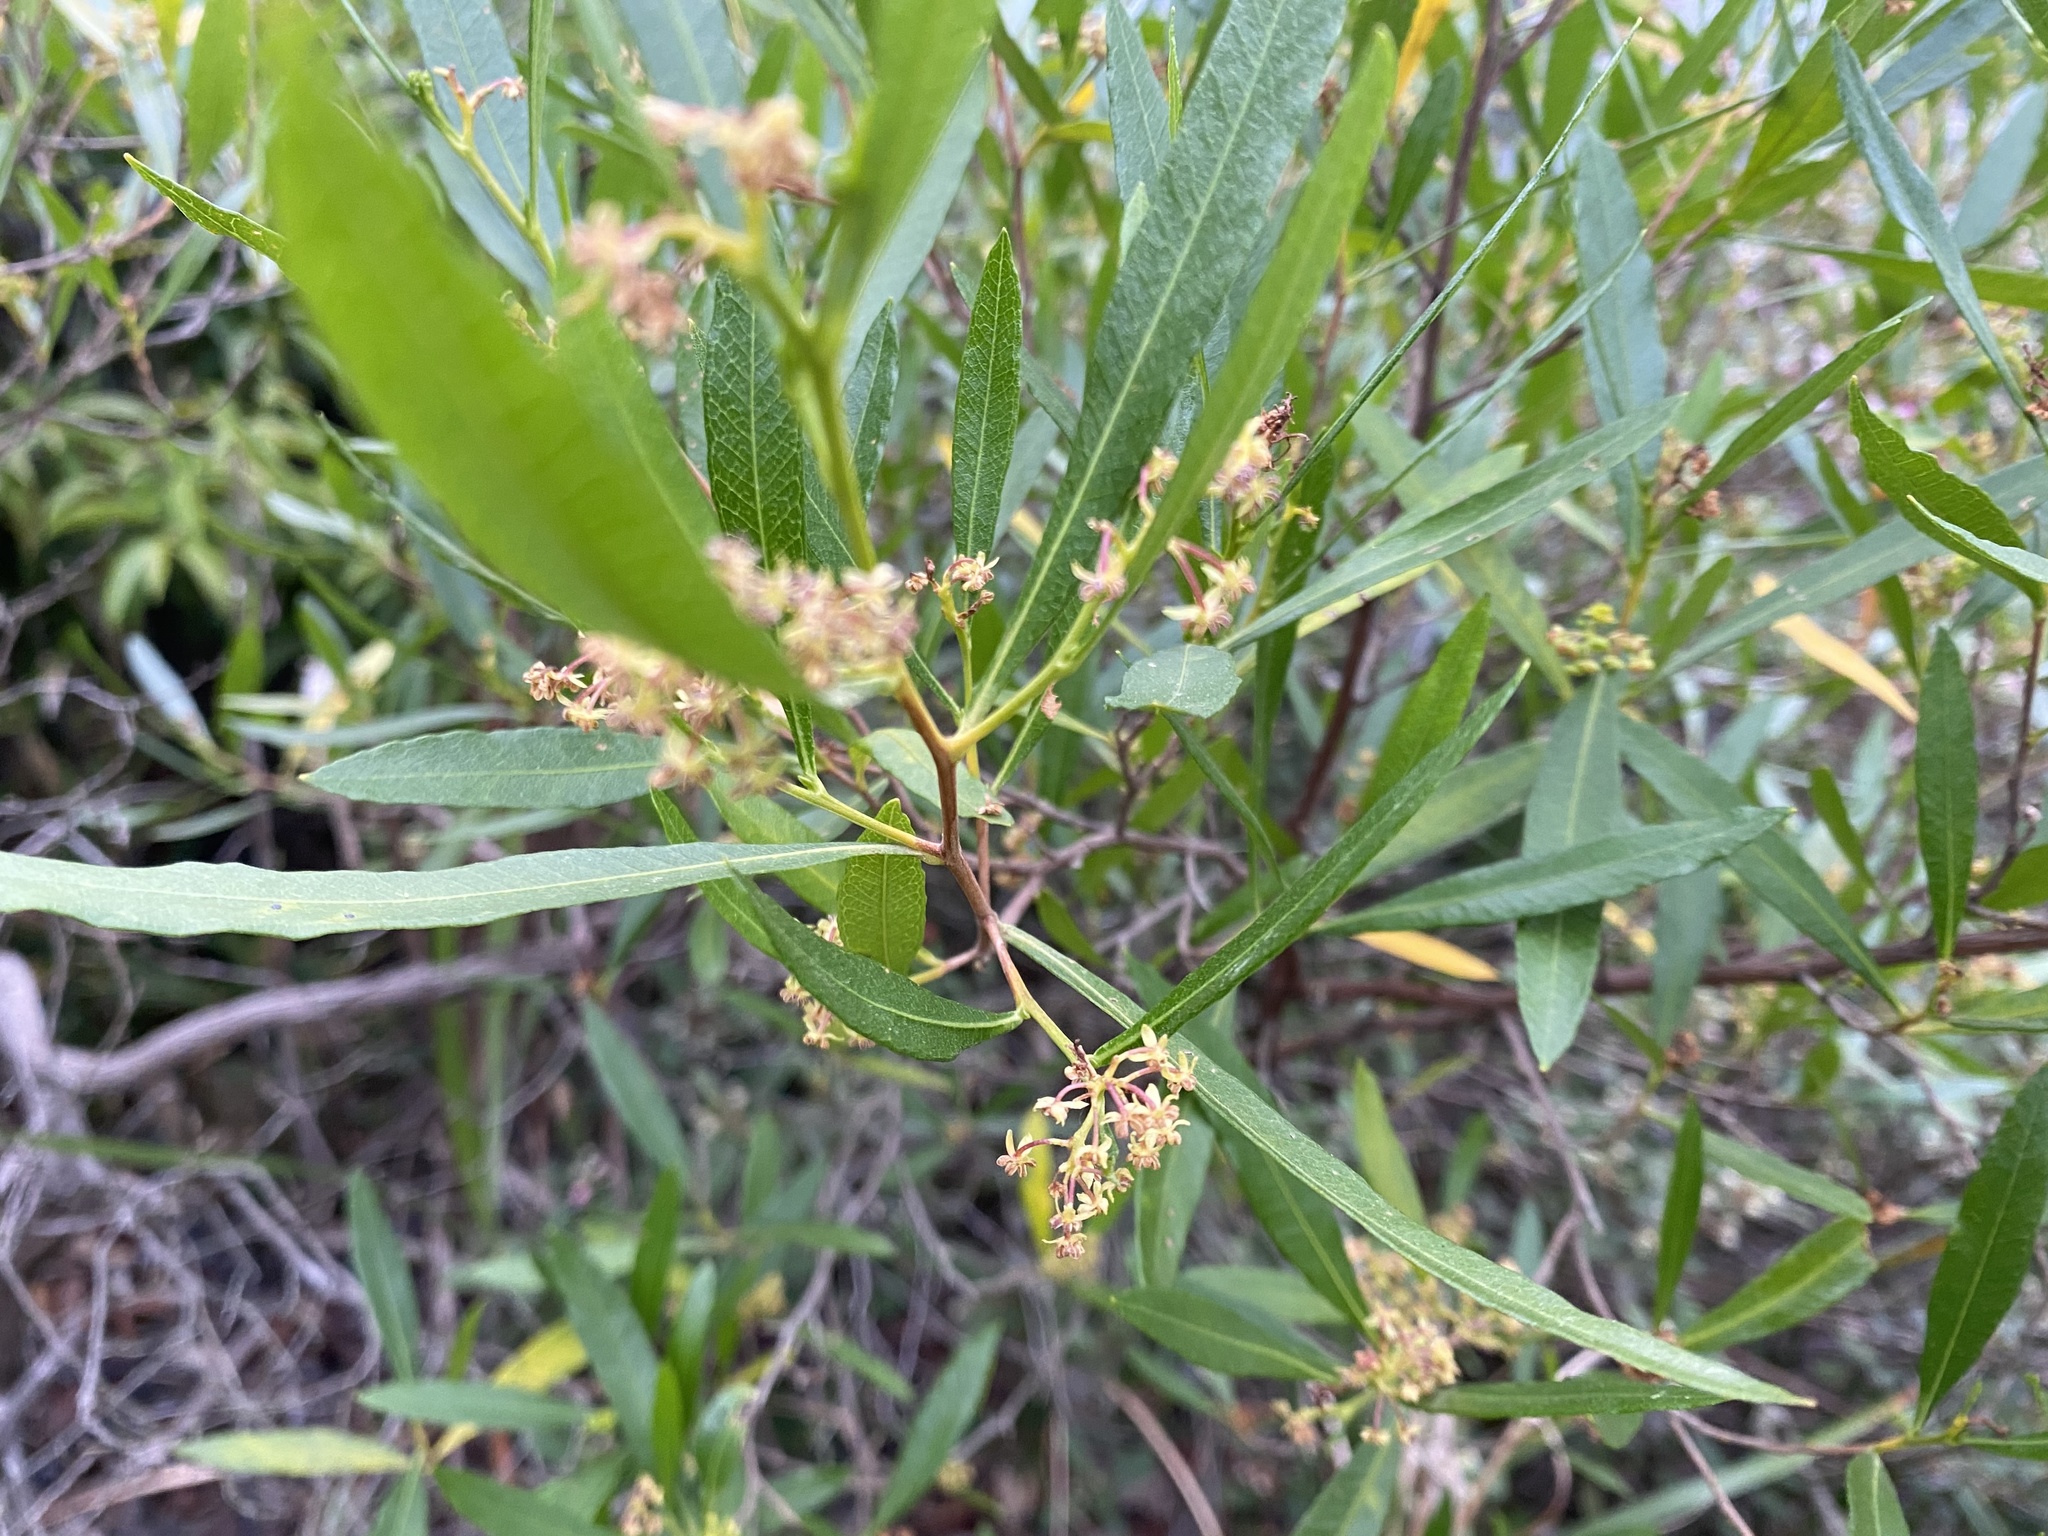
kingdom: Plantae
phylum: Tracheophyta
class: Magnoliopsida
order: Sapindales
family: Sapindaceae
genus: Dodonaea
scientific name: Dodonaea viscosa
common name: Hopbush
